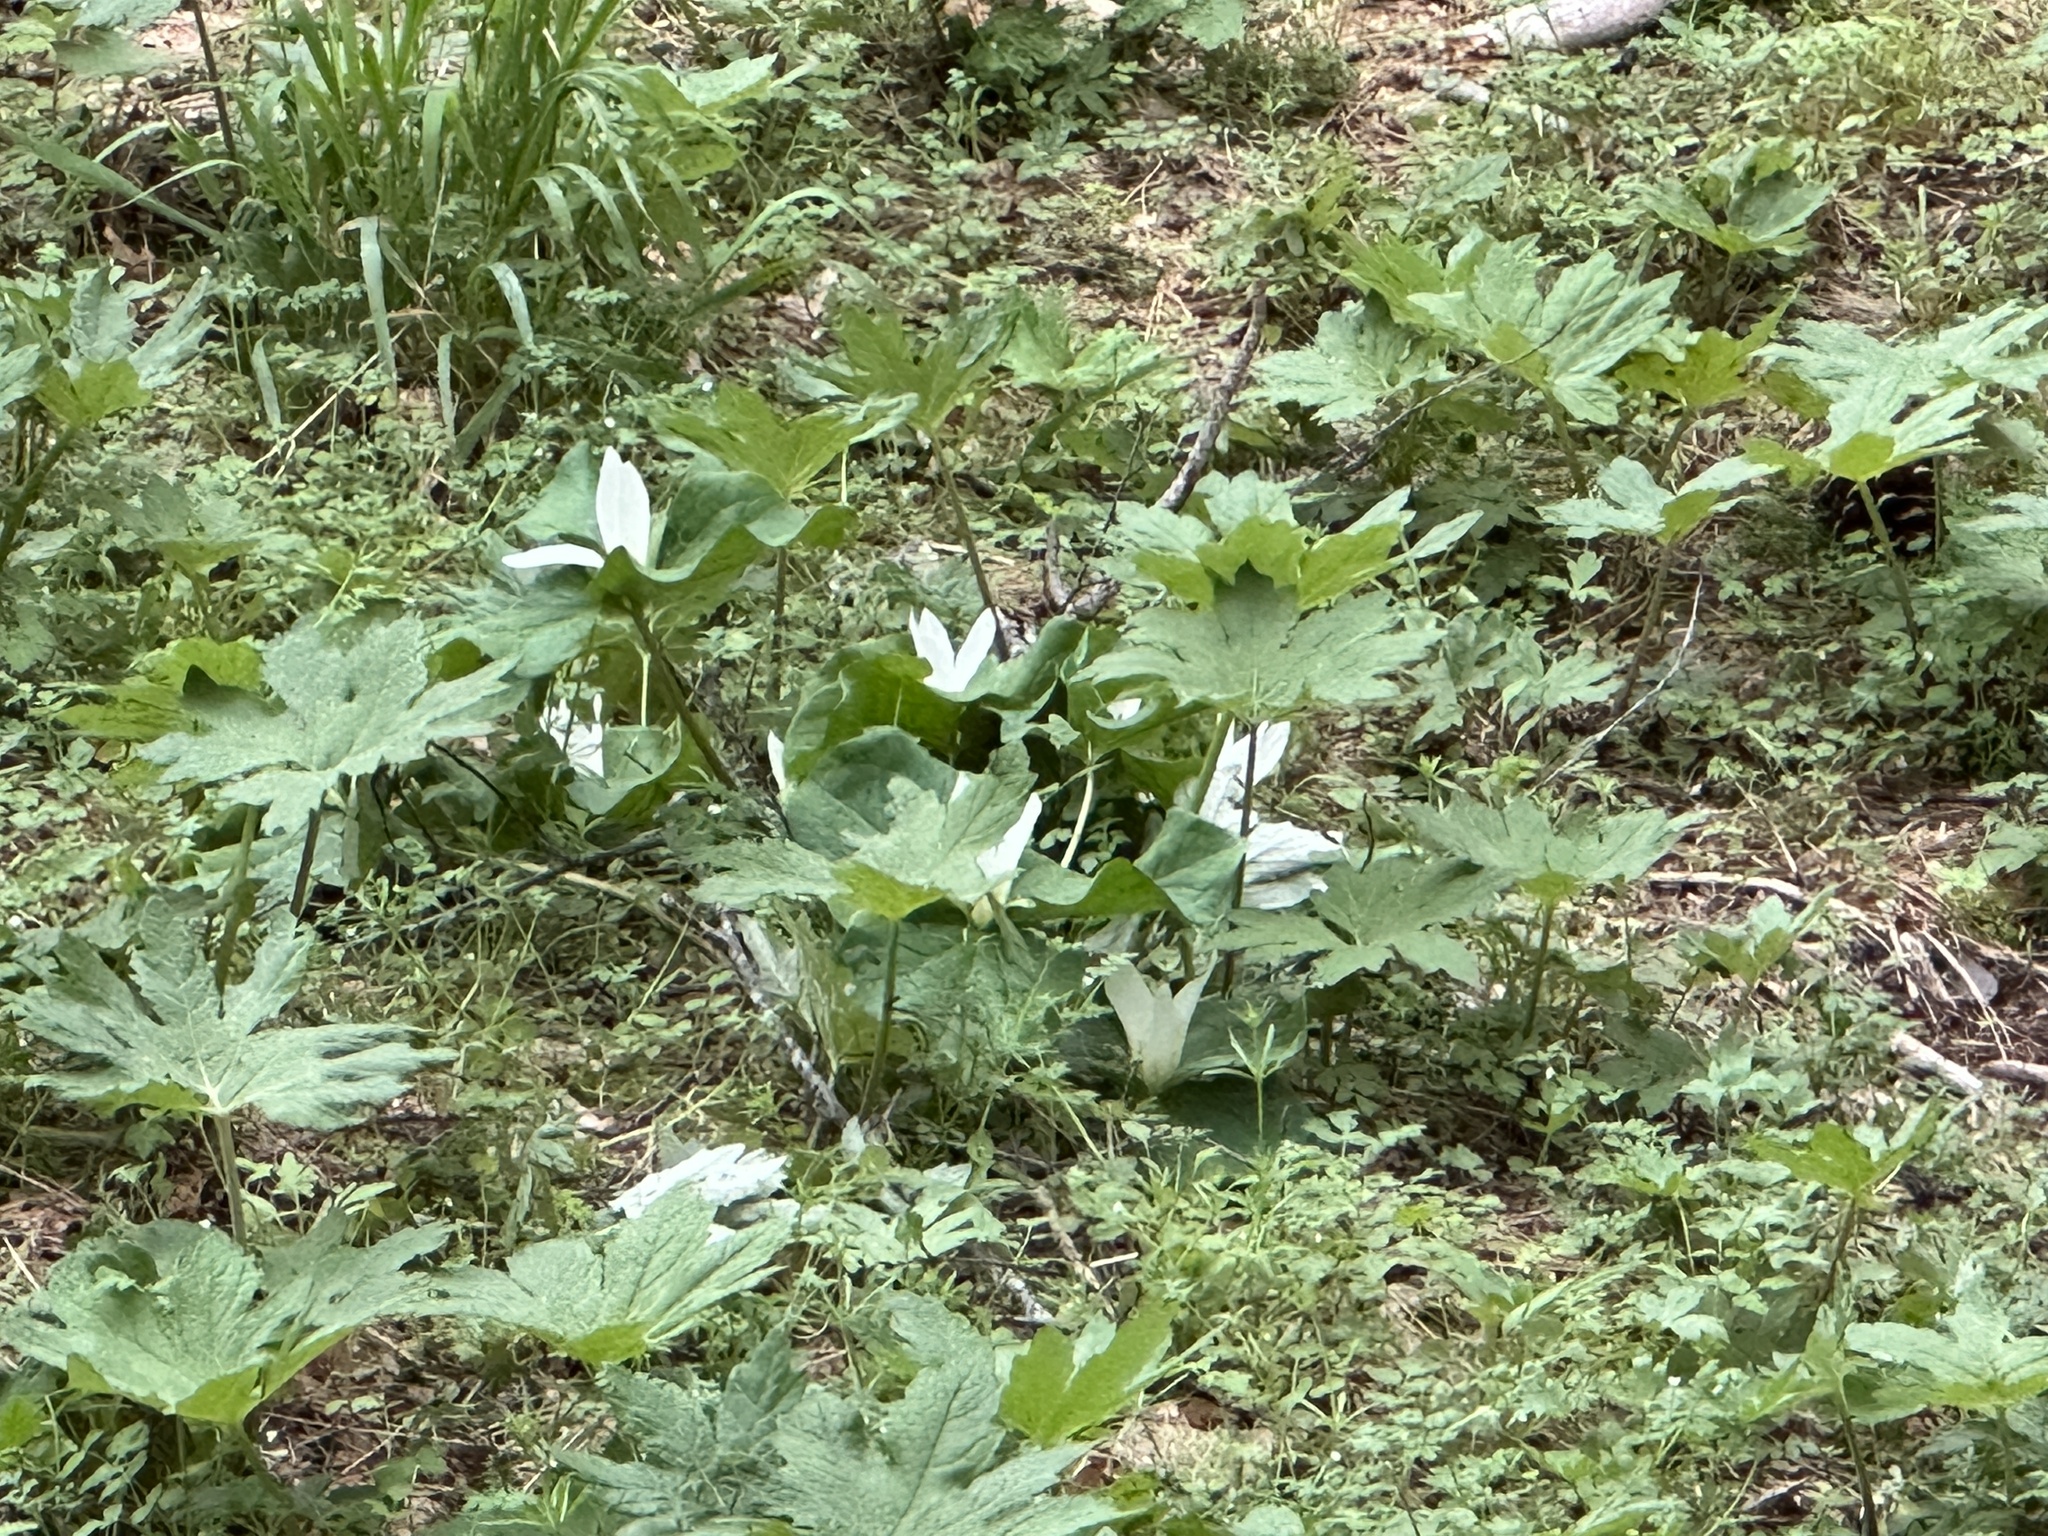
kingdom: Plantae
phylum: Tracheophyta
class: Liliopsida
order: Liliales
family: Melanthiaceae
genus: Trillium
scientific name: Trillium albidum
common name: Freeman's trillium
